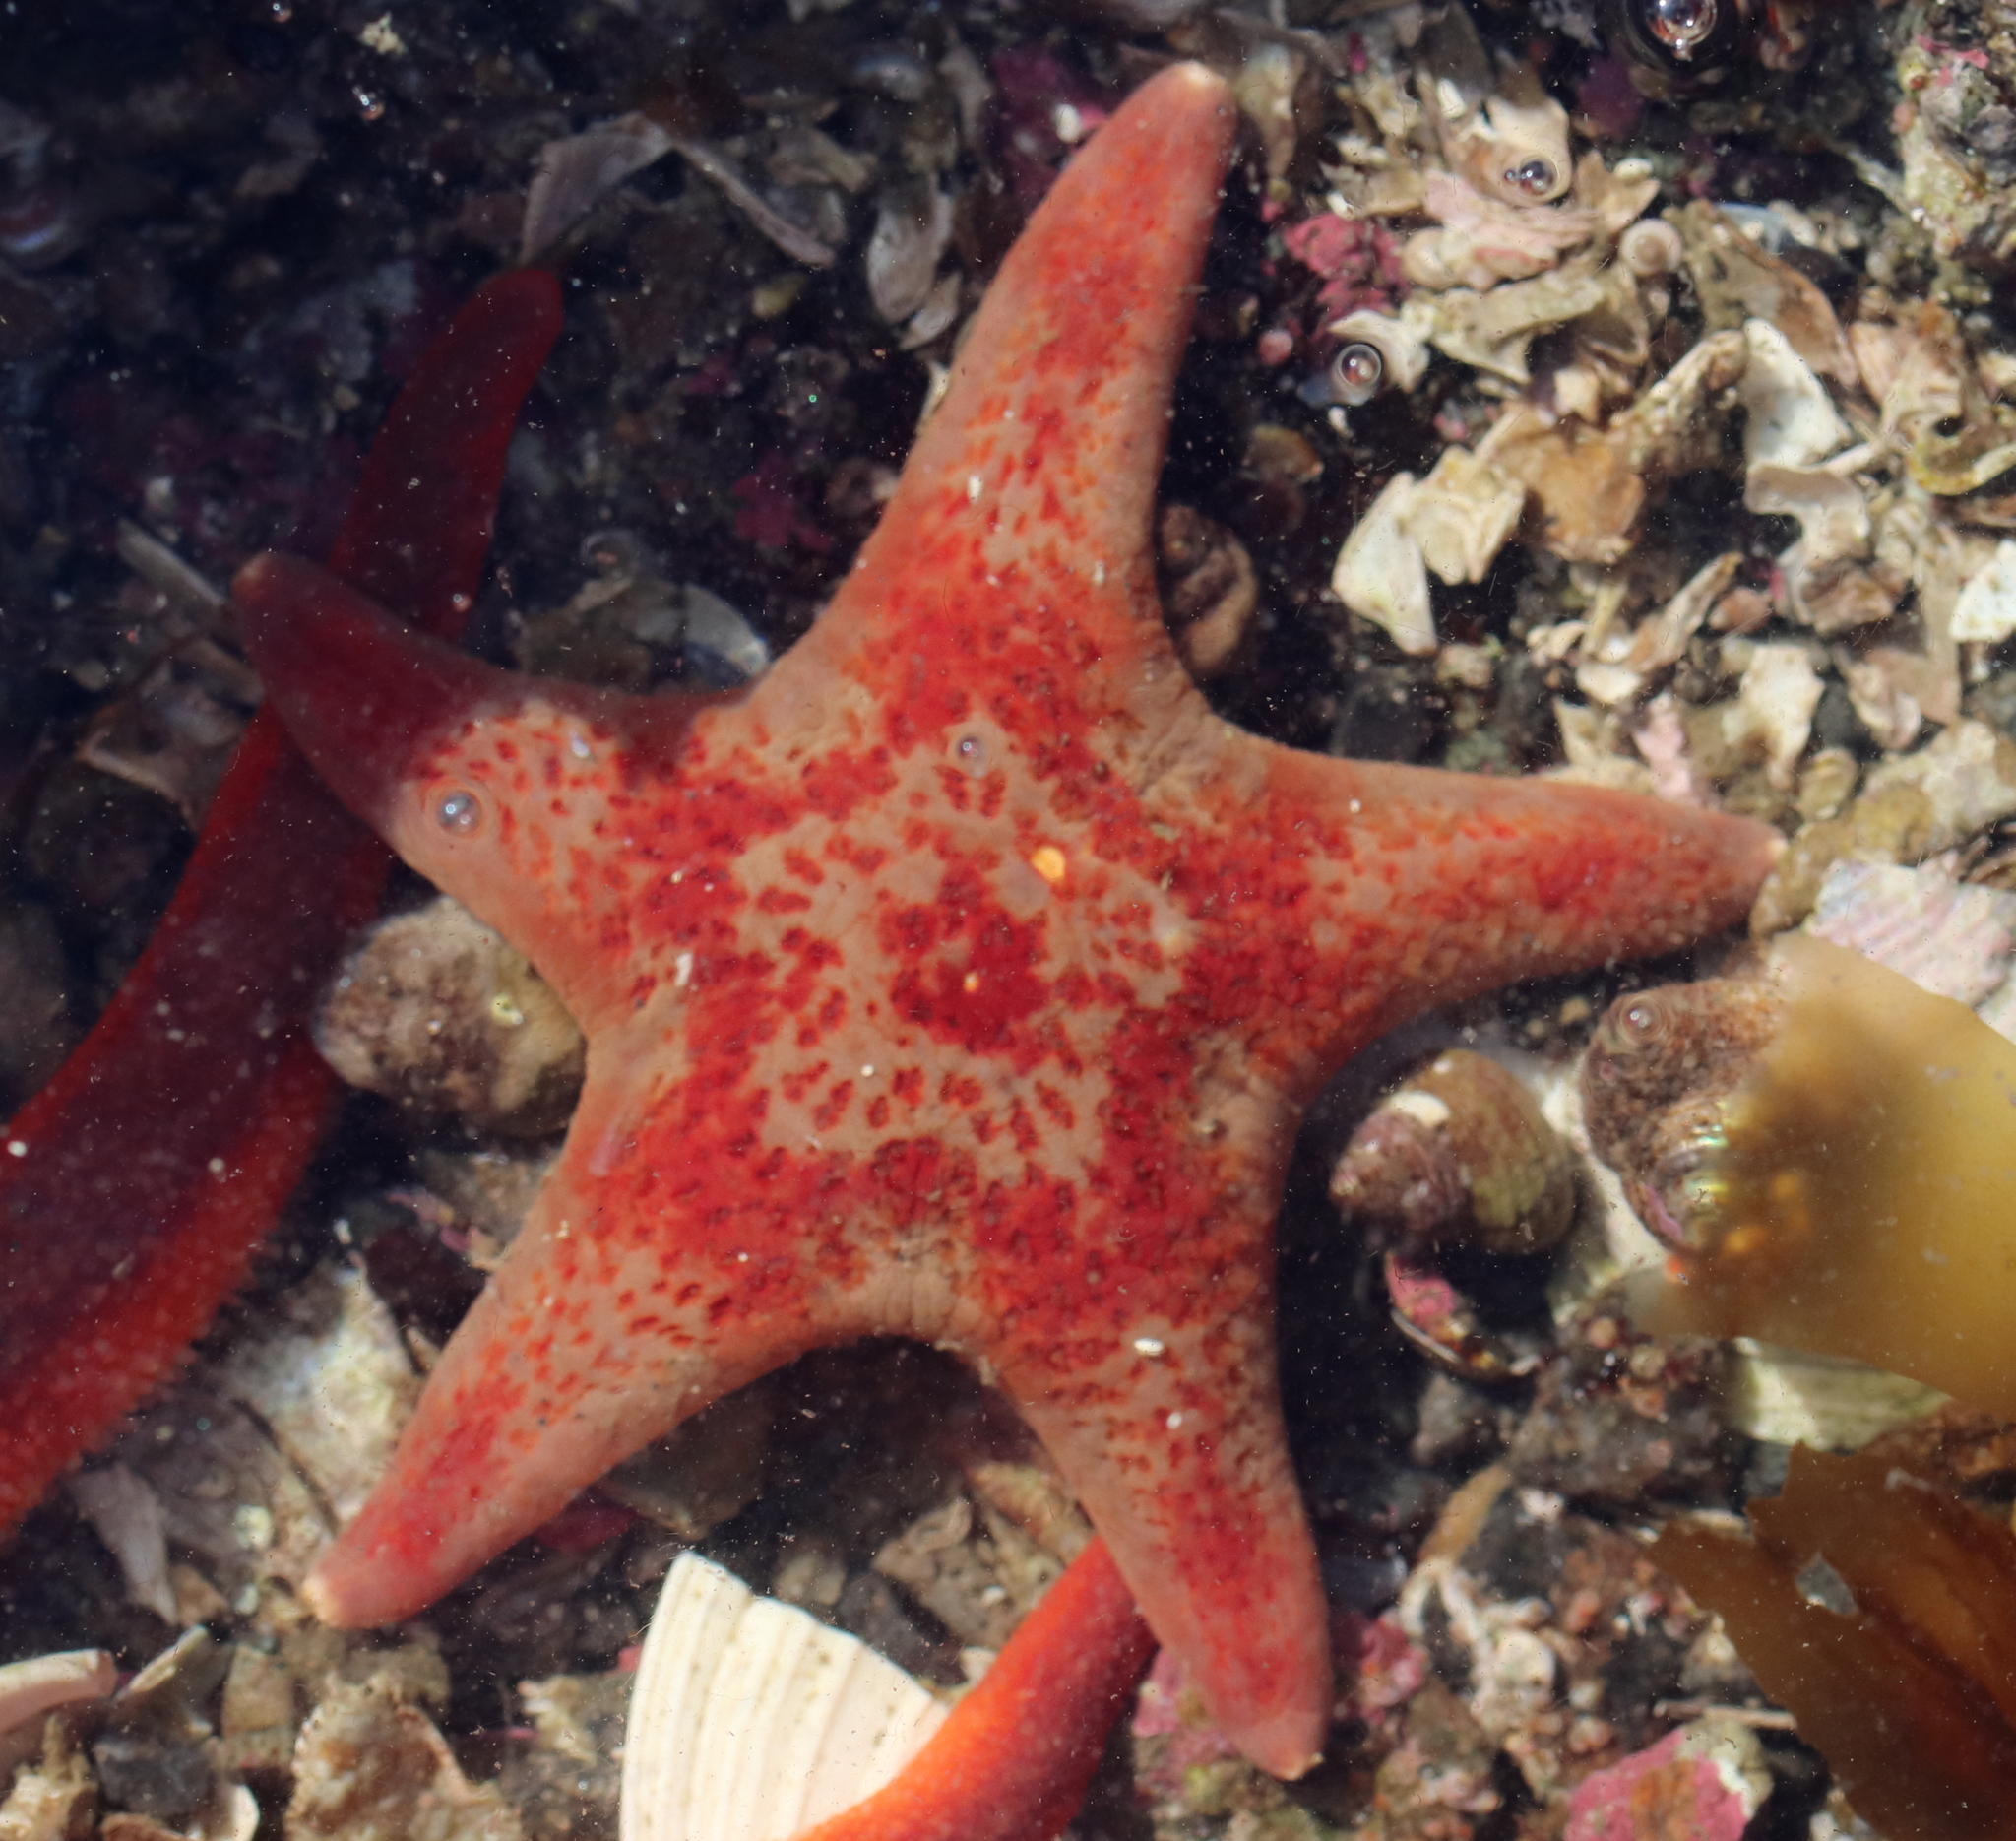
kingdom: Animalia
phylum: Echinodermata
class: Asteroidea
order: Valvatida
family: Asteropseidae
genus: Dermasterias
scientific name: Dermasterias imbricata
